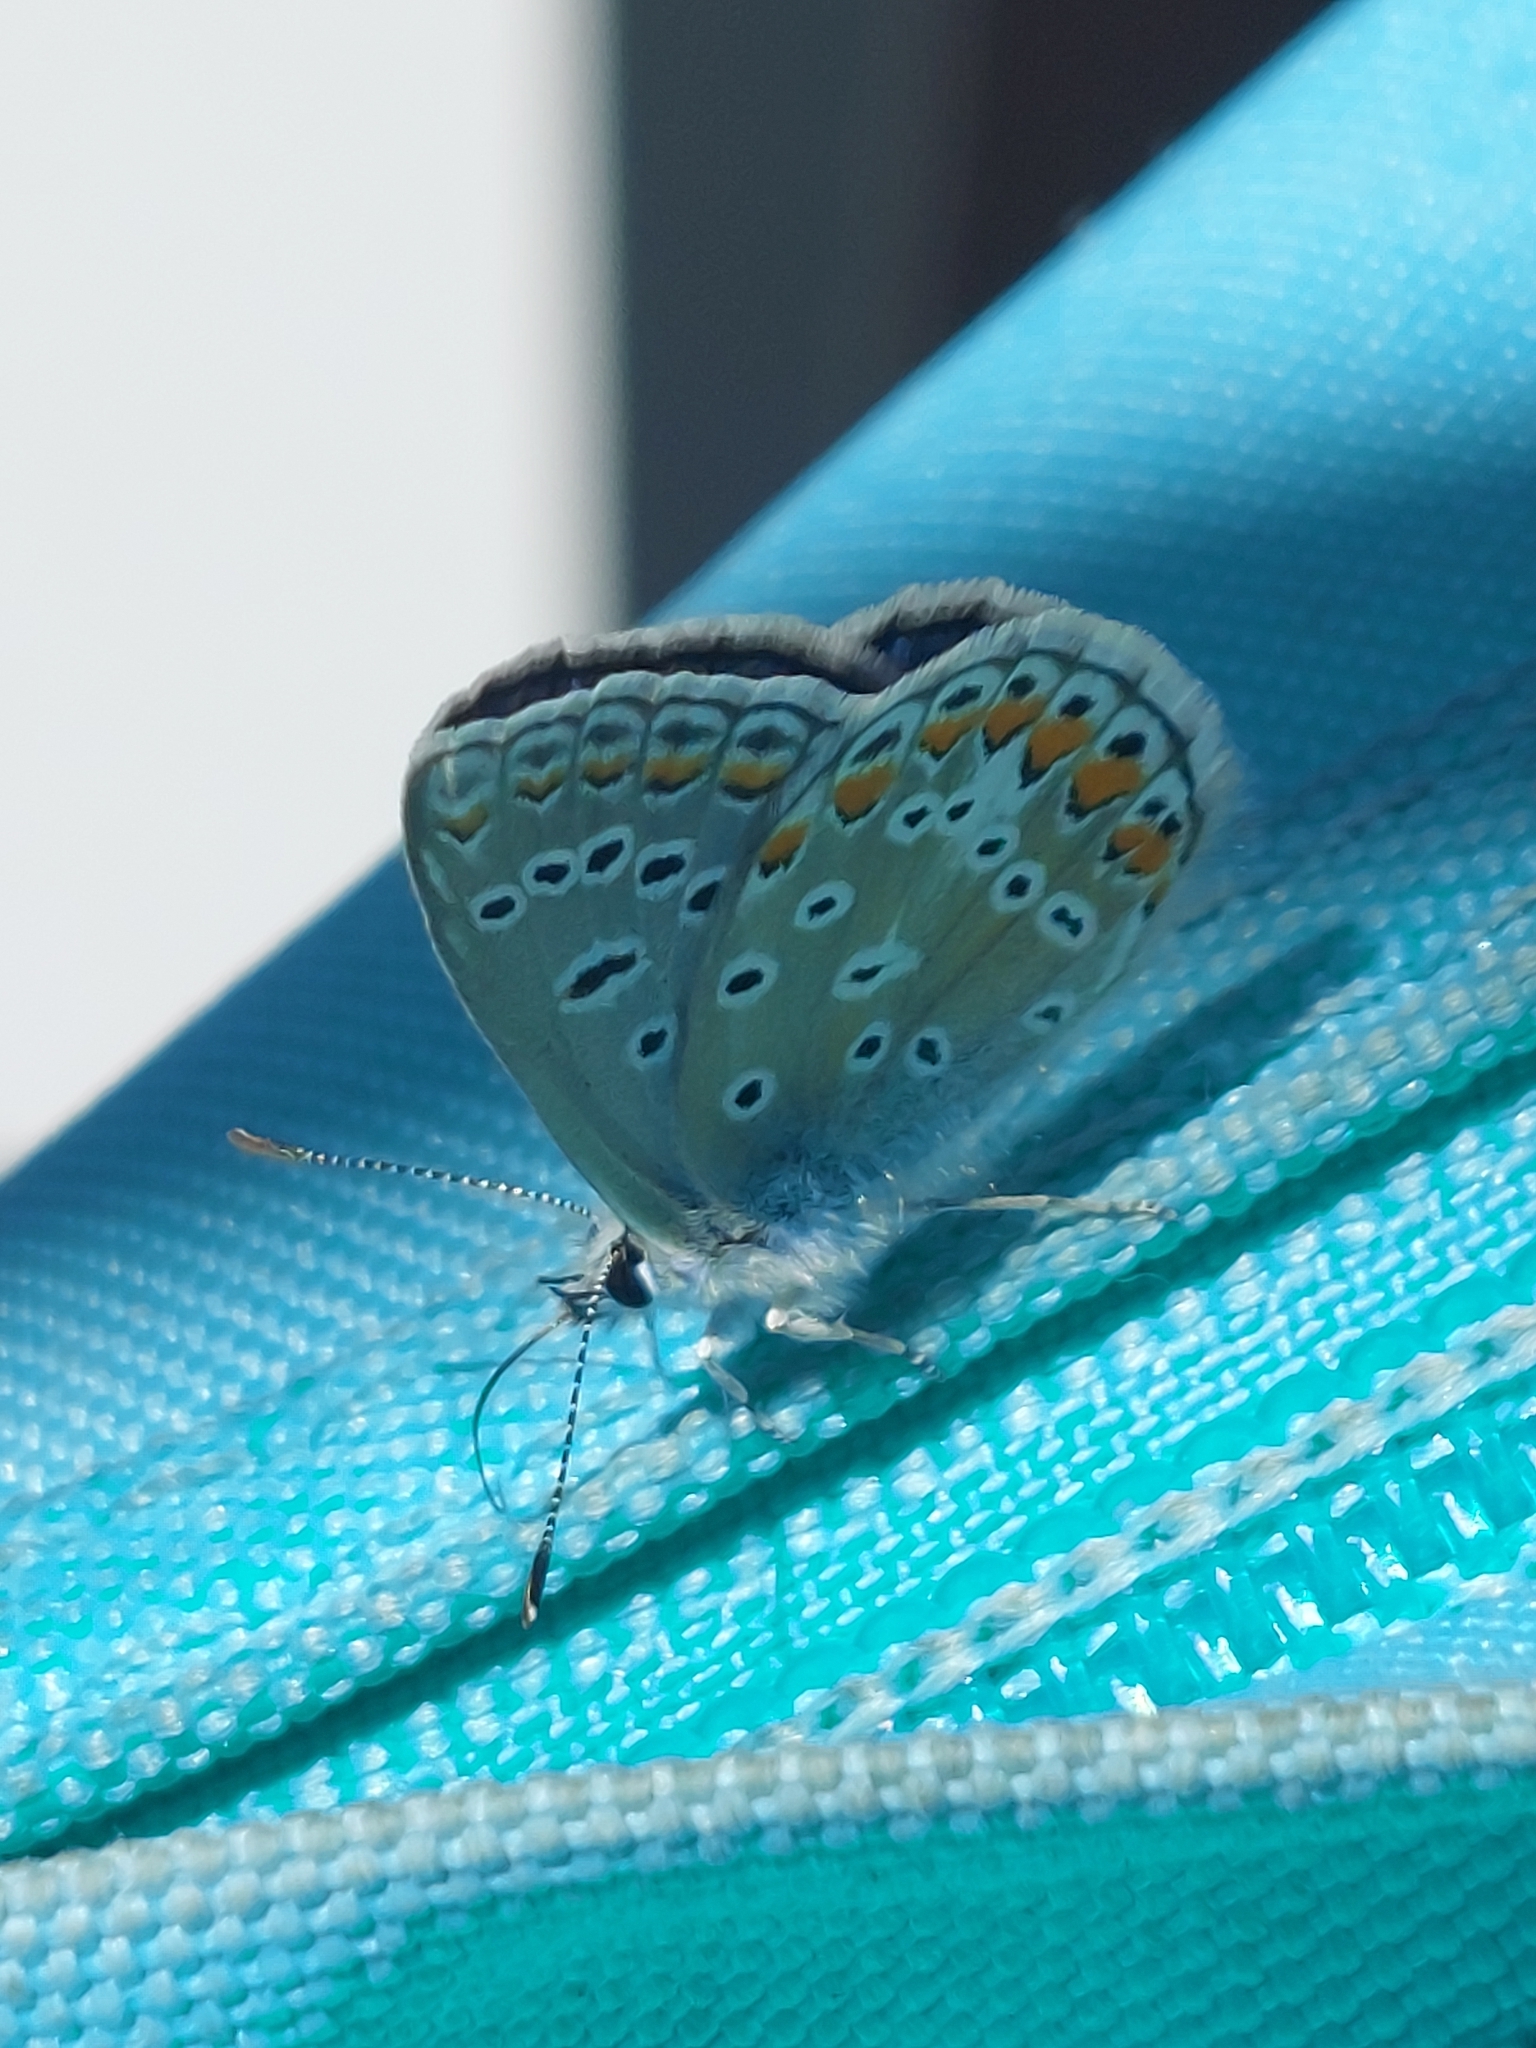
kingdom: Animalia
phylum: Arthropoda
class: Insecta
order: Lepidoptera
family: Lycaenidae
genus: Polyommatus
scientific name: Polyommatus icarus
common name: Common blue
